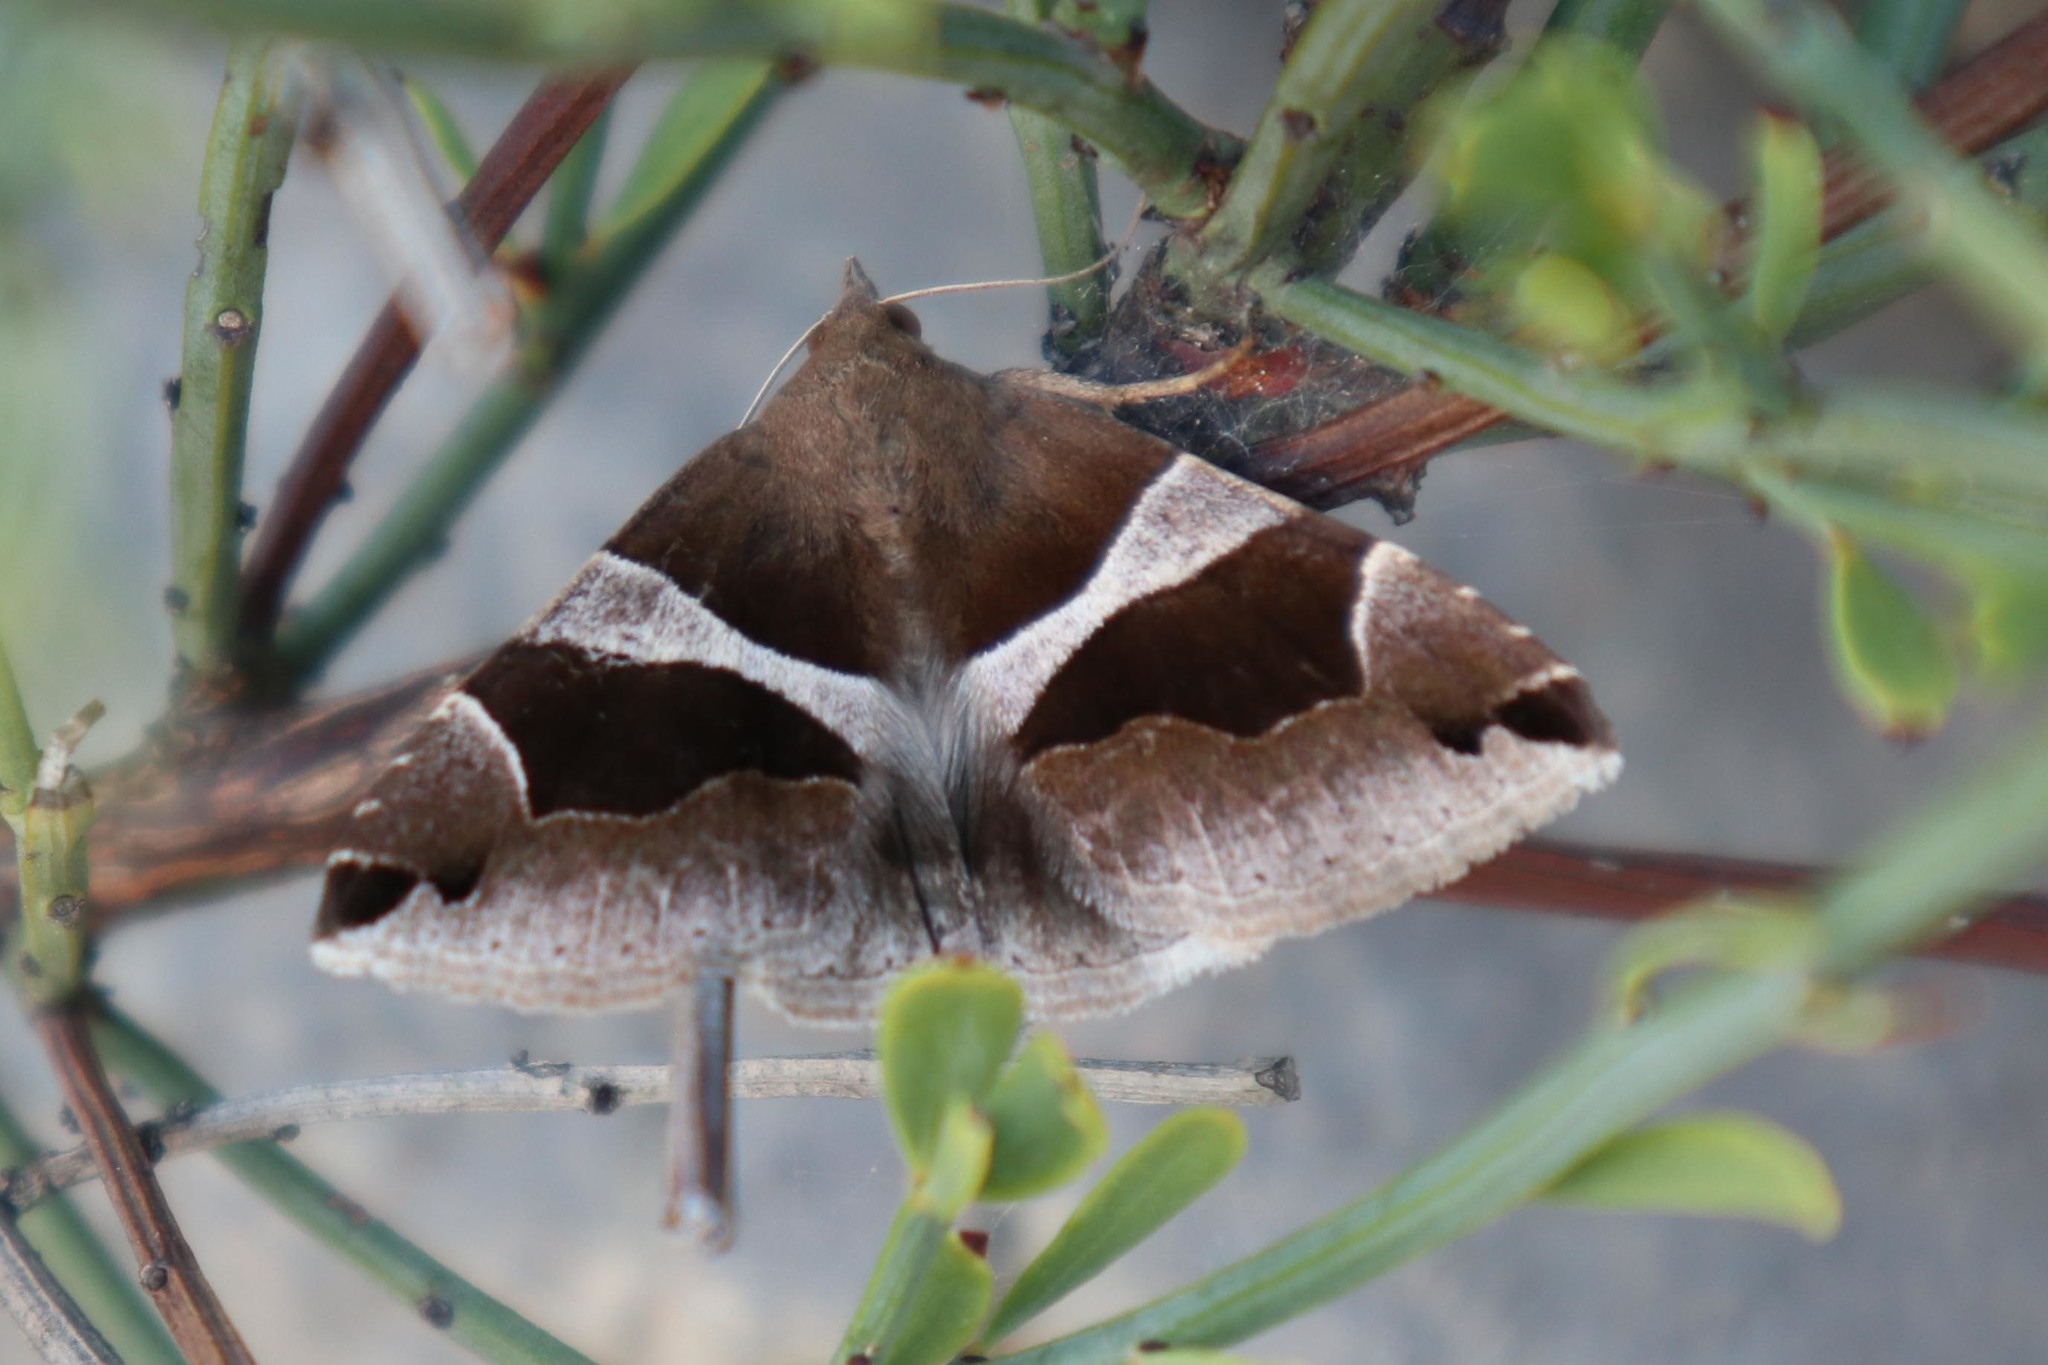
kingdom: Animalia
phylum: Arthropoda
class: Insecta
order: Lepidoptera
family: Erebidae
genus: Dysgonia
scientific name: Dysgonia algira
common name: Passenger
